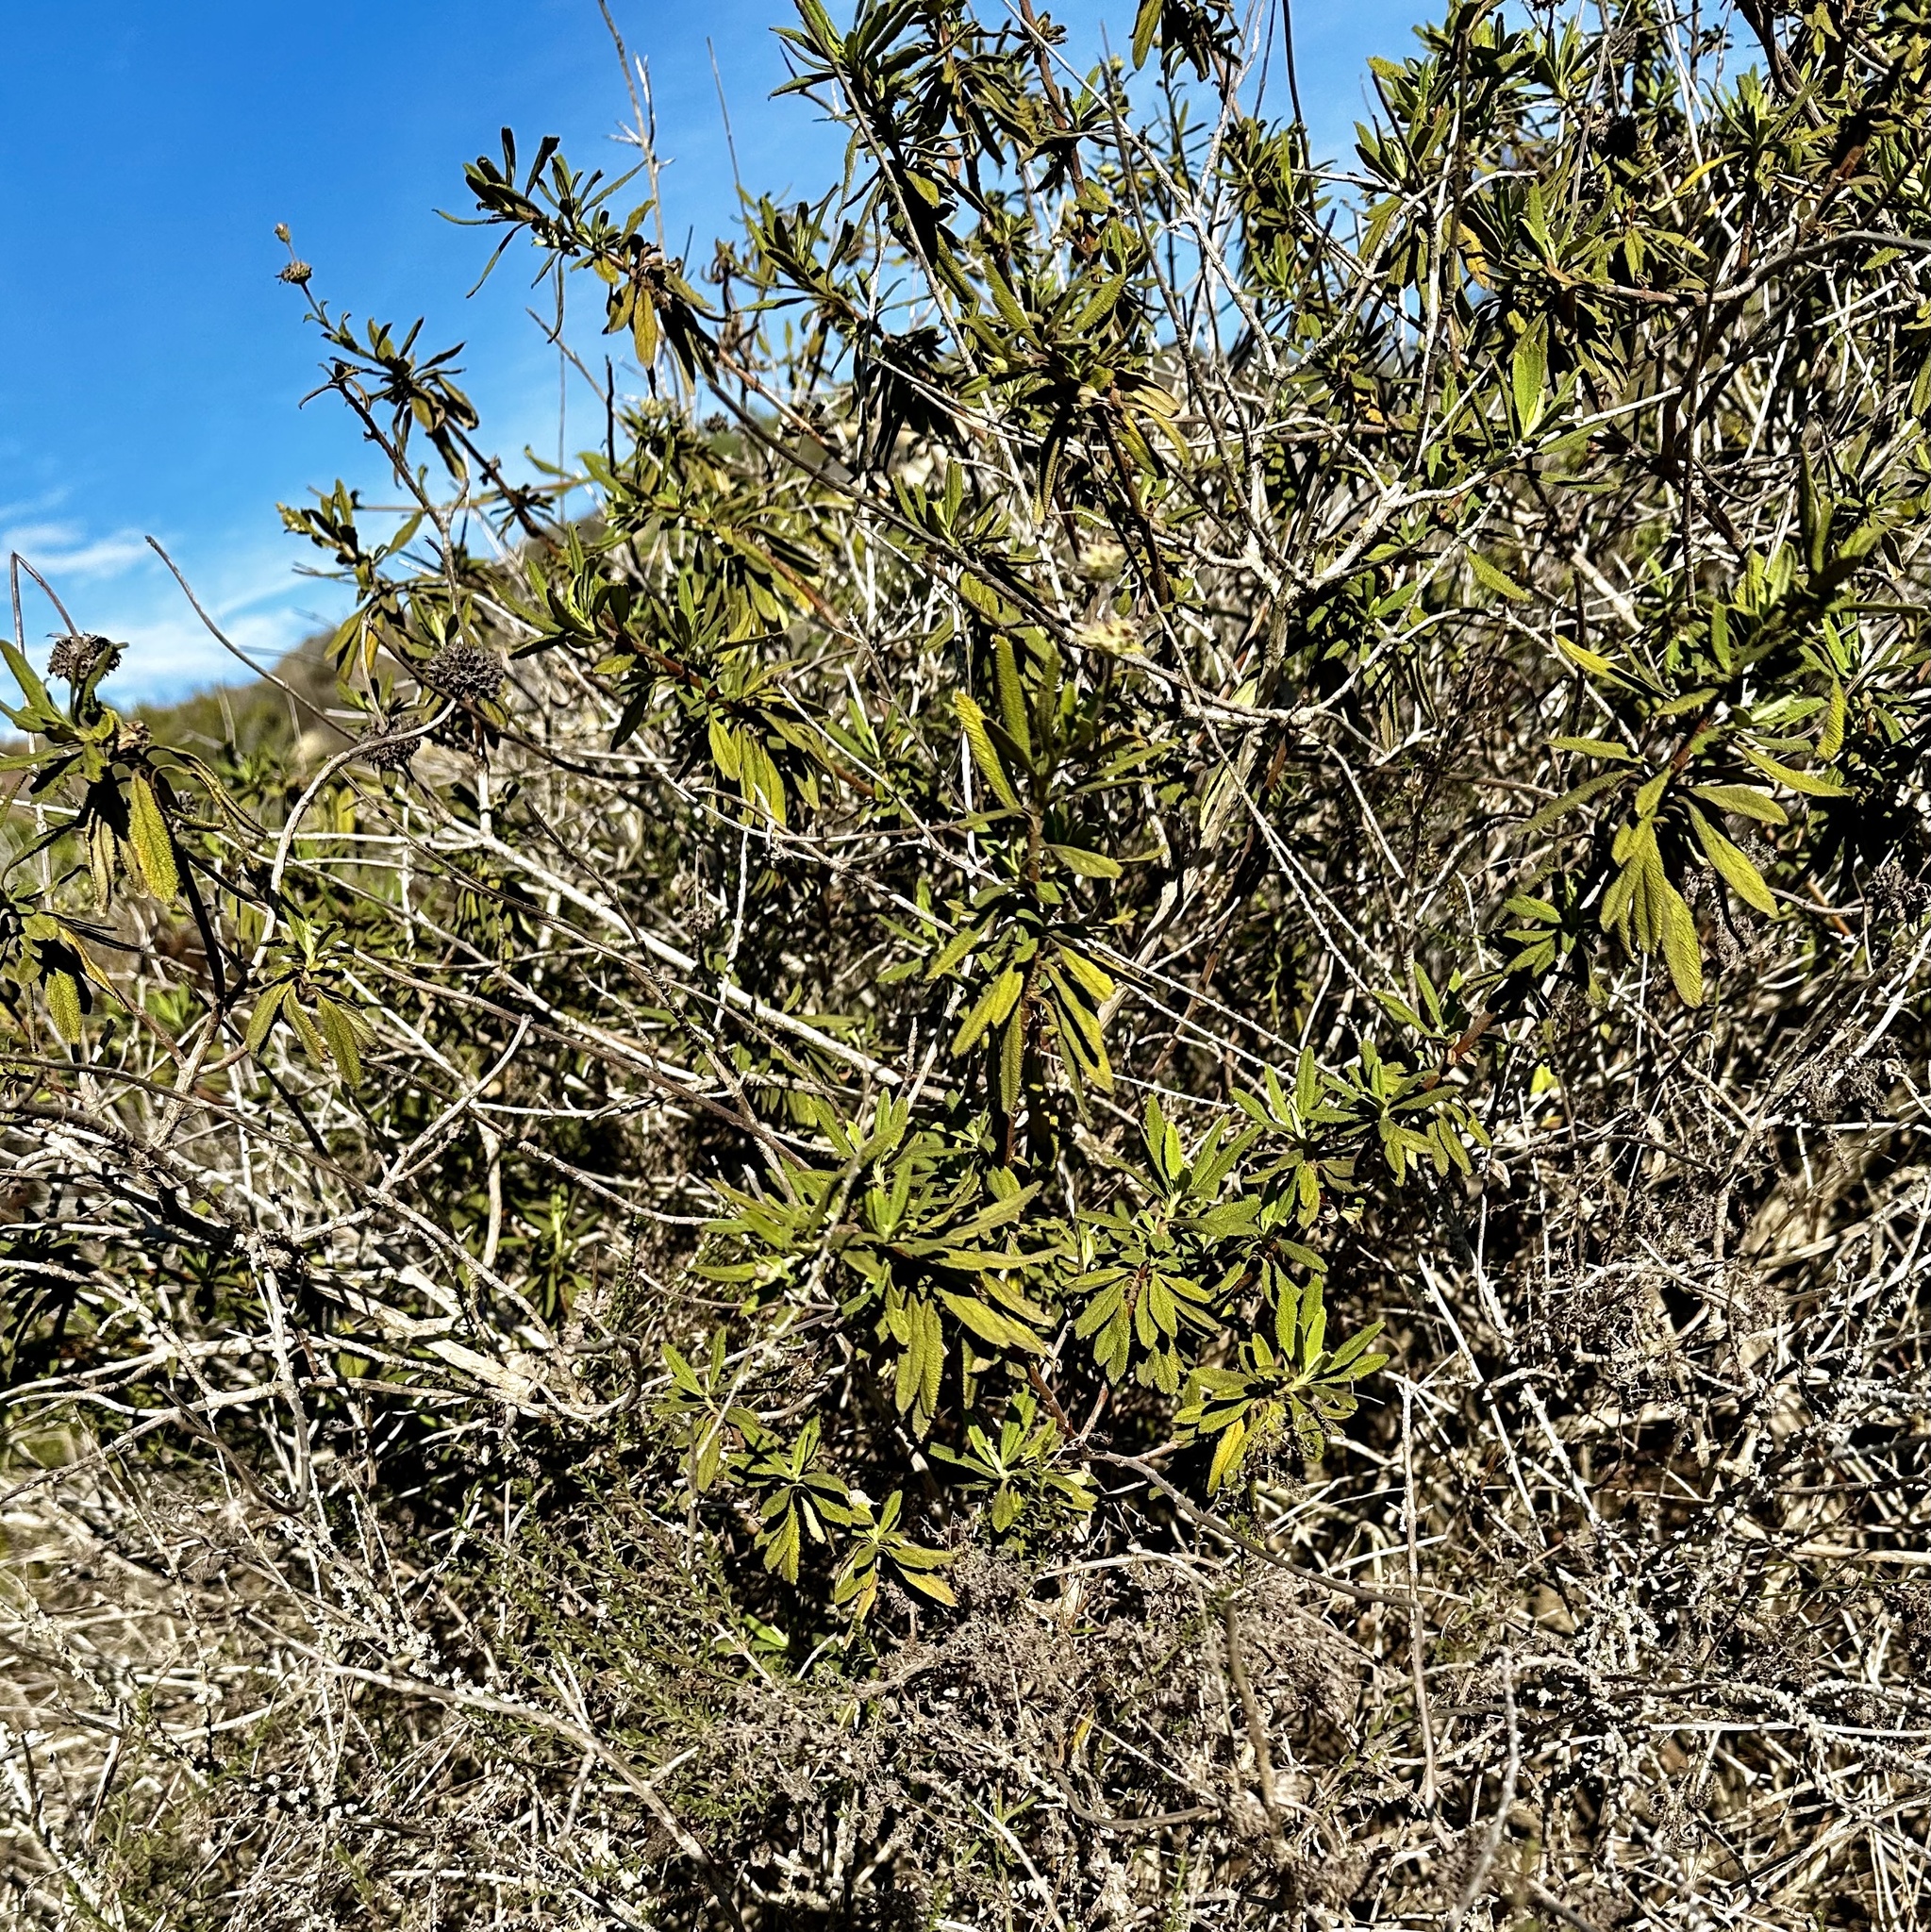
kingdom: Plantae
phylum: Tracheophyta
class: Magnoliopsida
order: Lamiales
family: Lamiaceae
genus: Salvia
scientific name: Salvia mellifera
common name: Black sage
